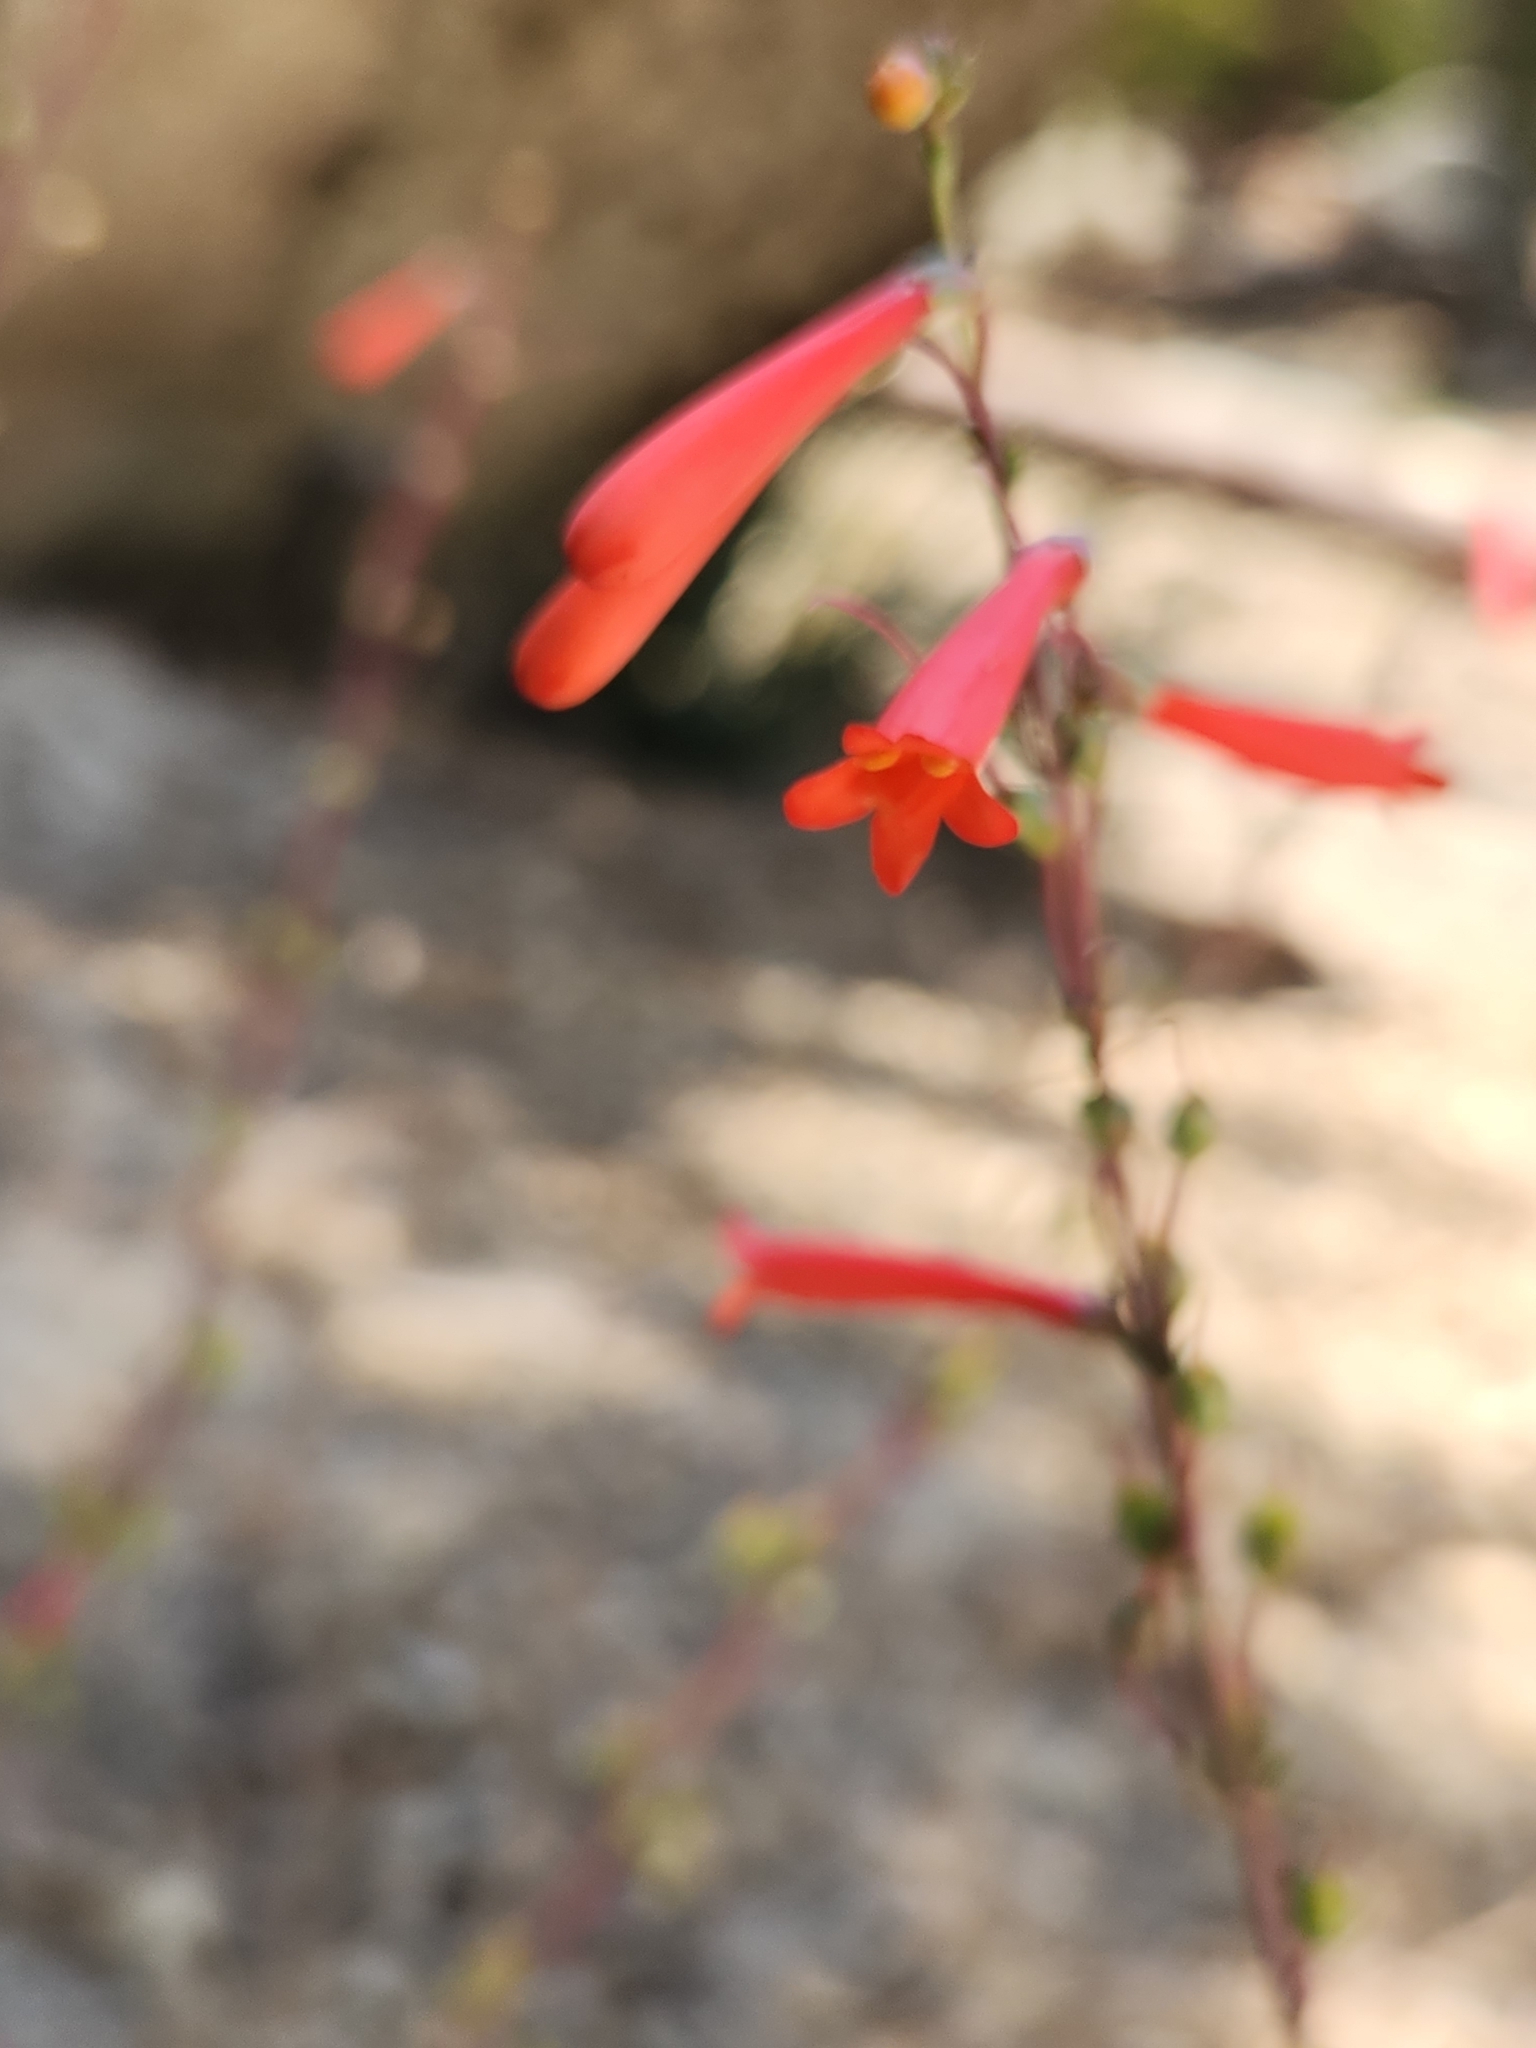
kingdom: Plantae
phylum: Tracheophyta
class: Magnoliopsida
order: Lamiales
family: Plantaginaceae
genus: Penstemon
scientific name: Penstemon centranthifolius
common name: Scarlet bugler
